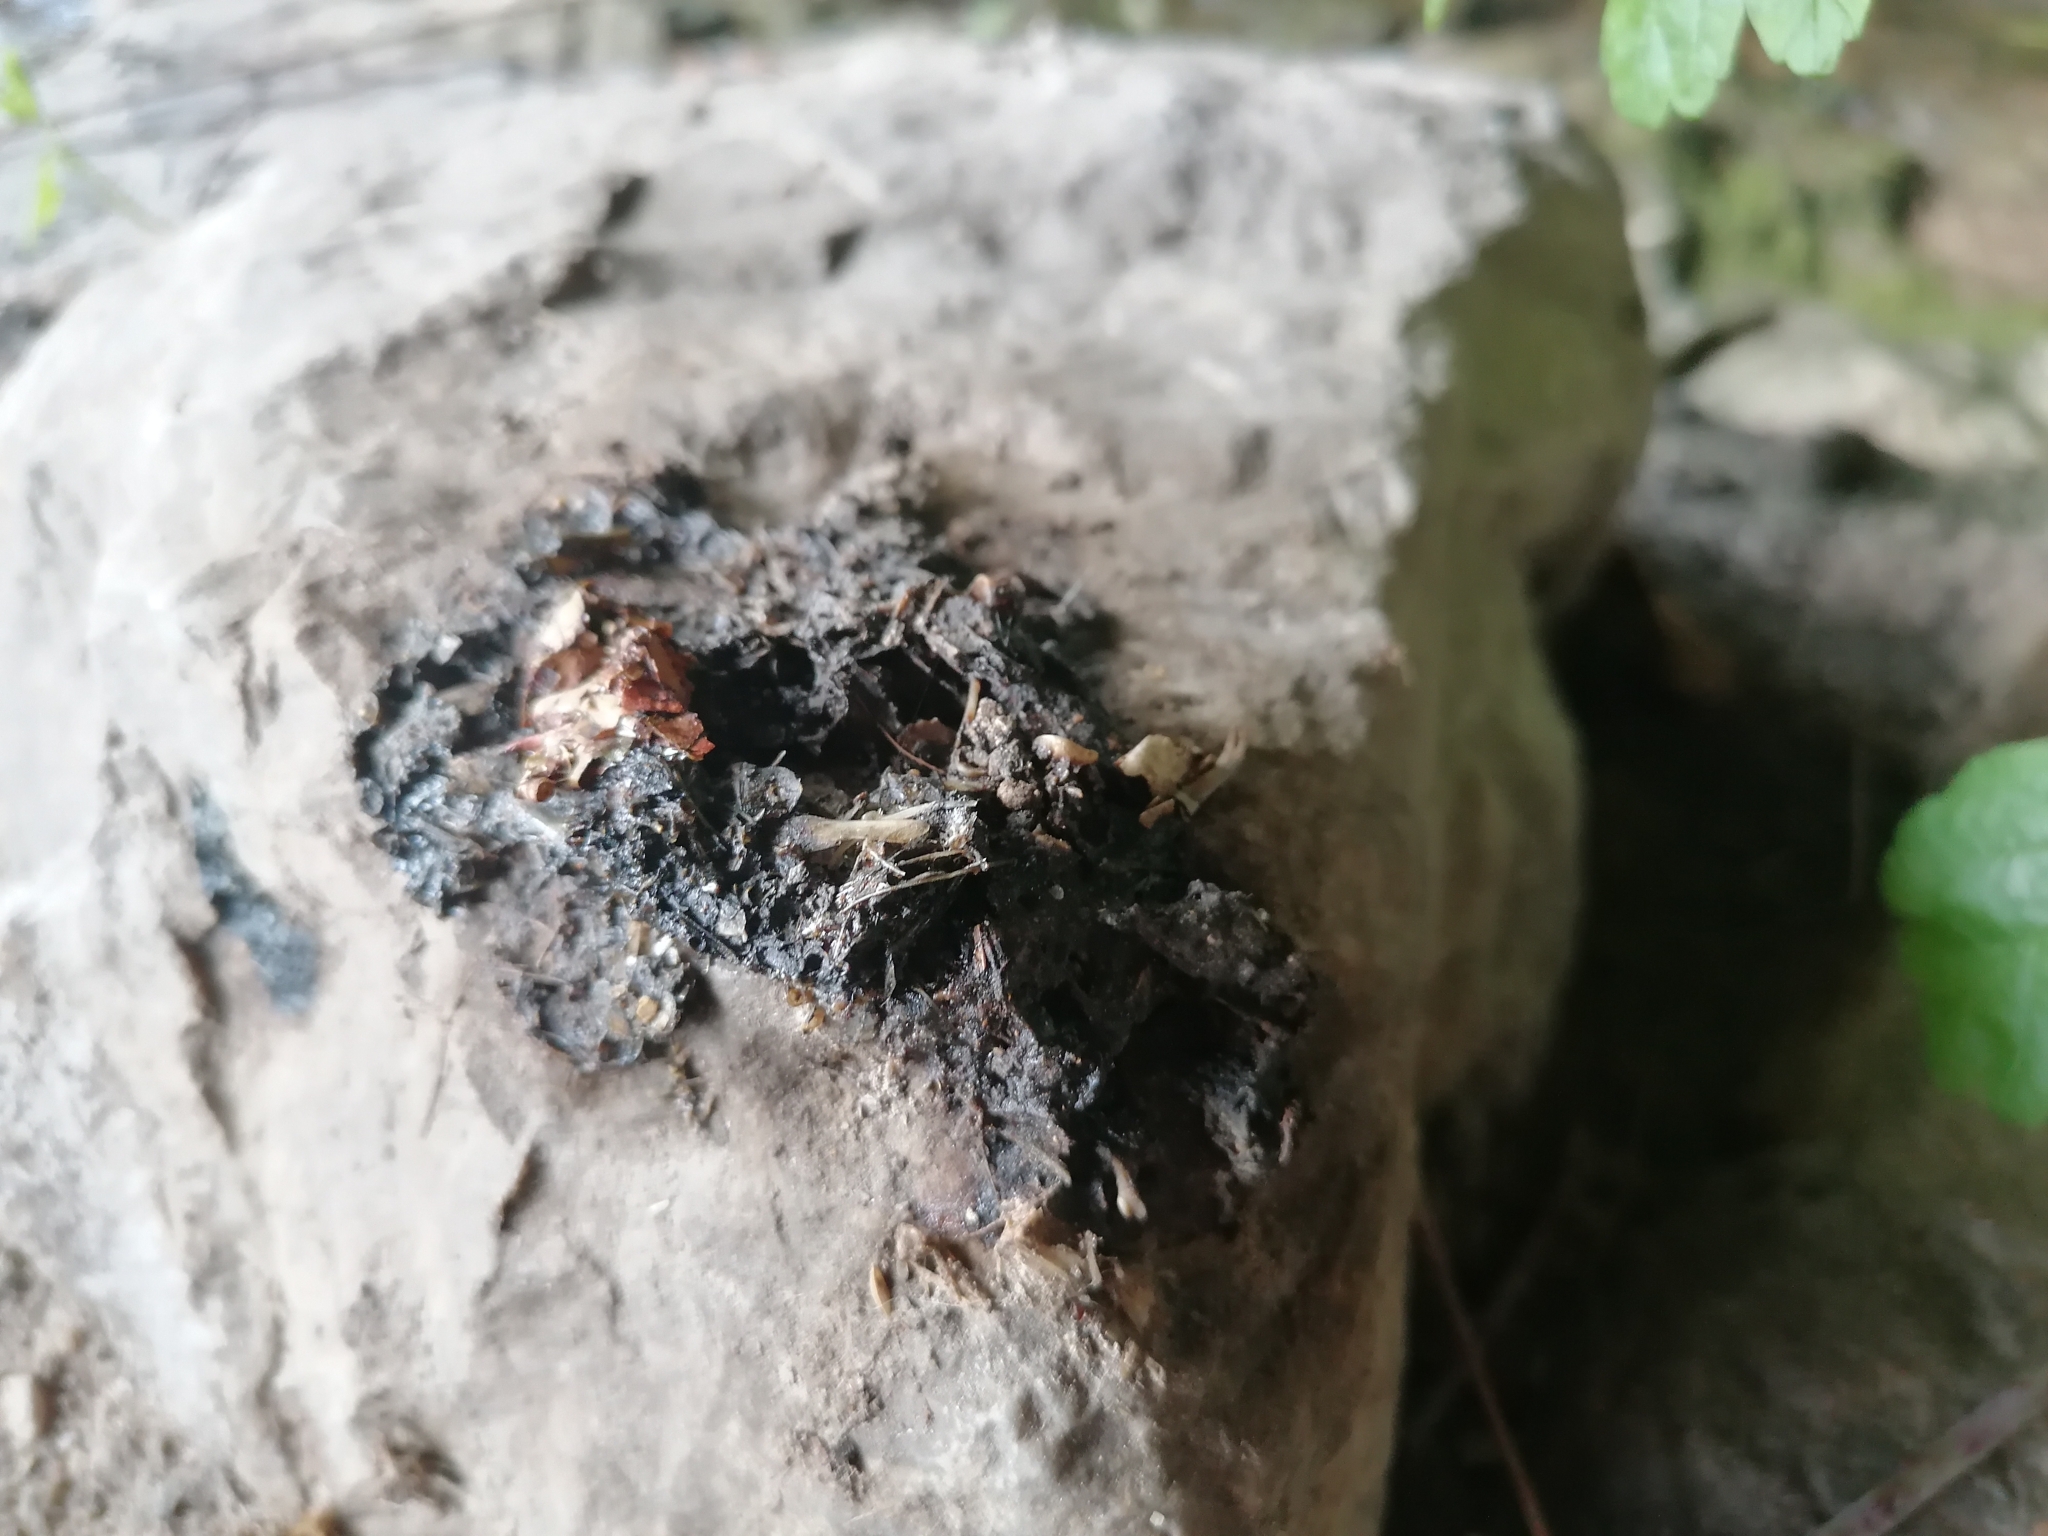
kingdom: Animalia
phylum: Chordata
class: Mammalia
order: Carnivora
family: Mustelidae
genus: Lutra
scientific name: Lutra lutra
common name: European otter
